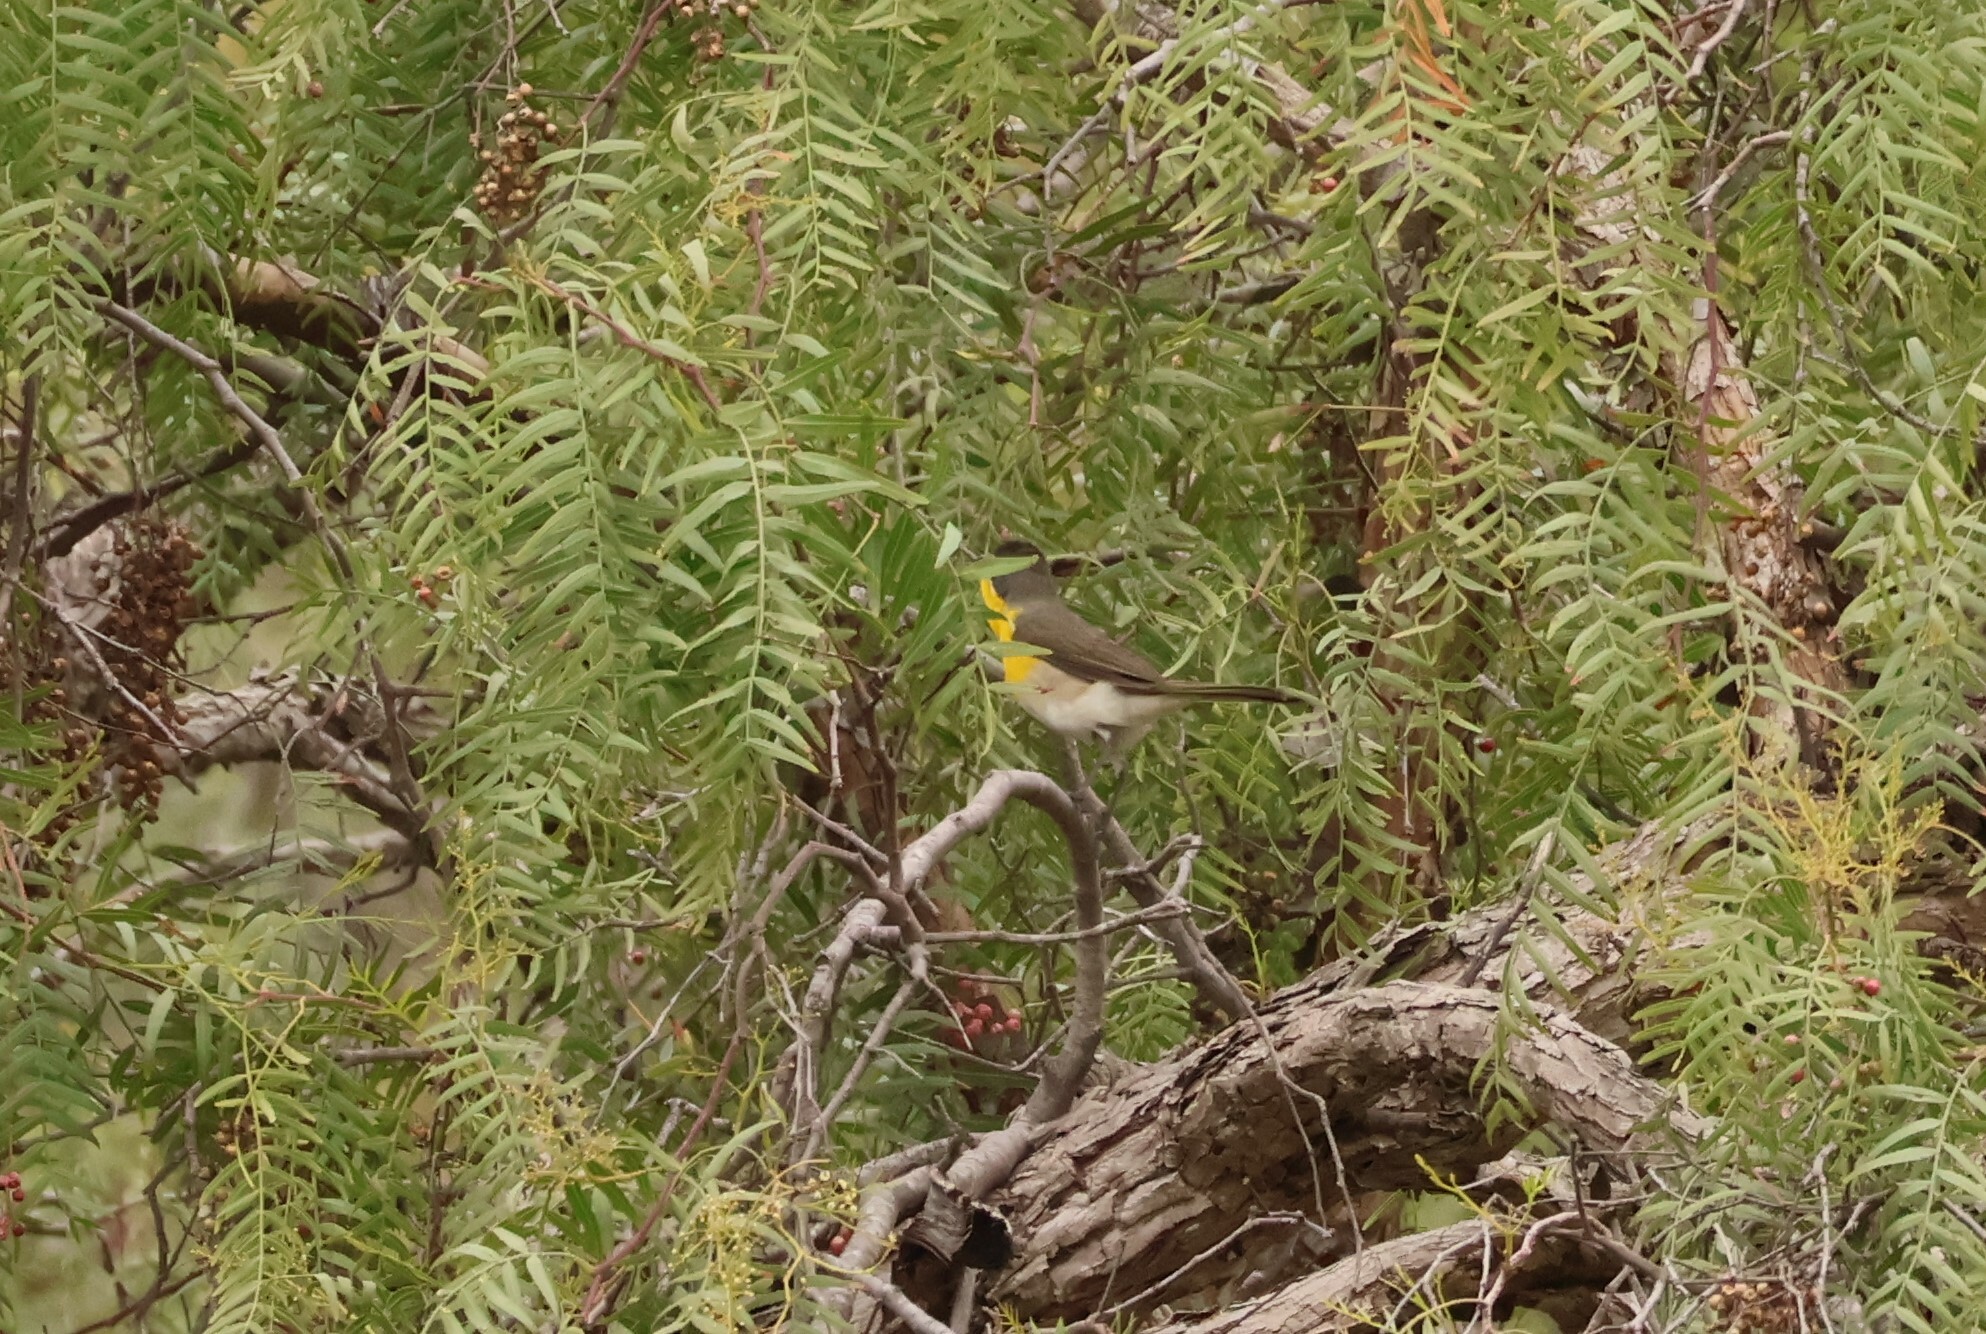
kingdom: Animalia
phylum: Chordata
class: Aves
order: Passeriformes
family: Parulidae
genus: Icteria
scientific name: Icteria virens
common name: Yellow-breasted chat
